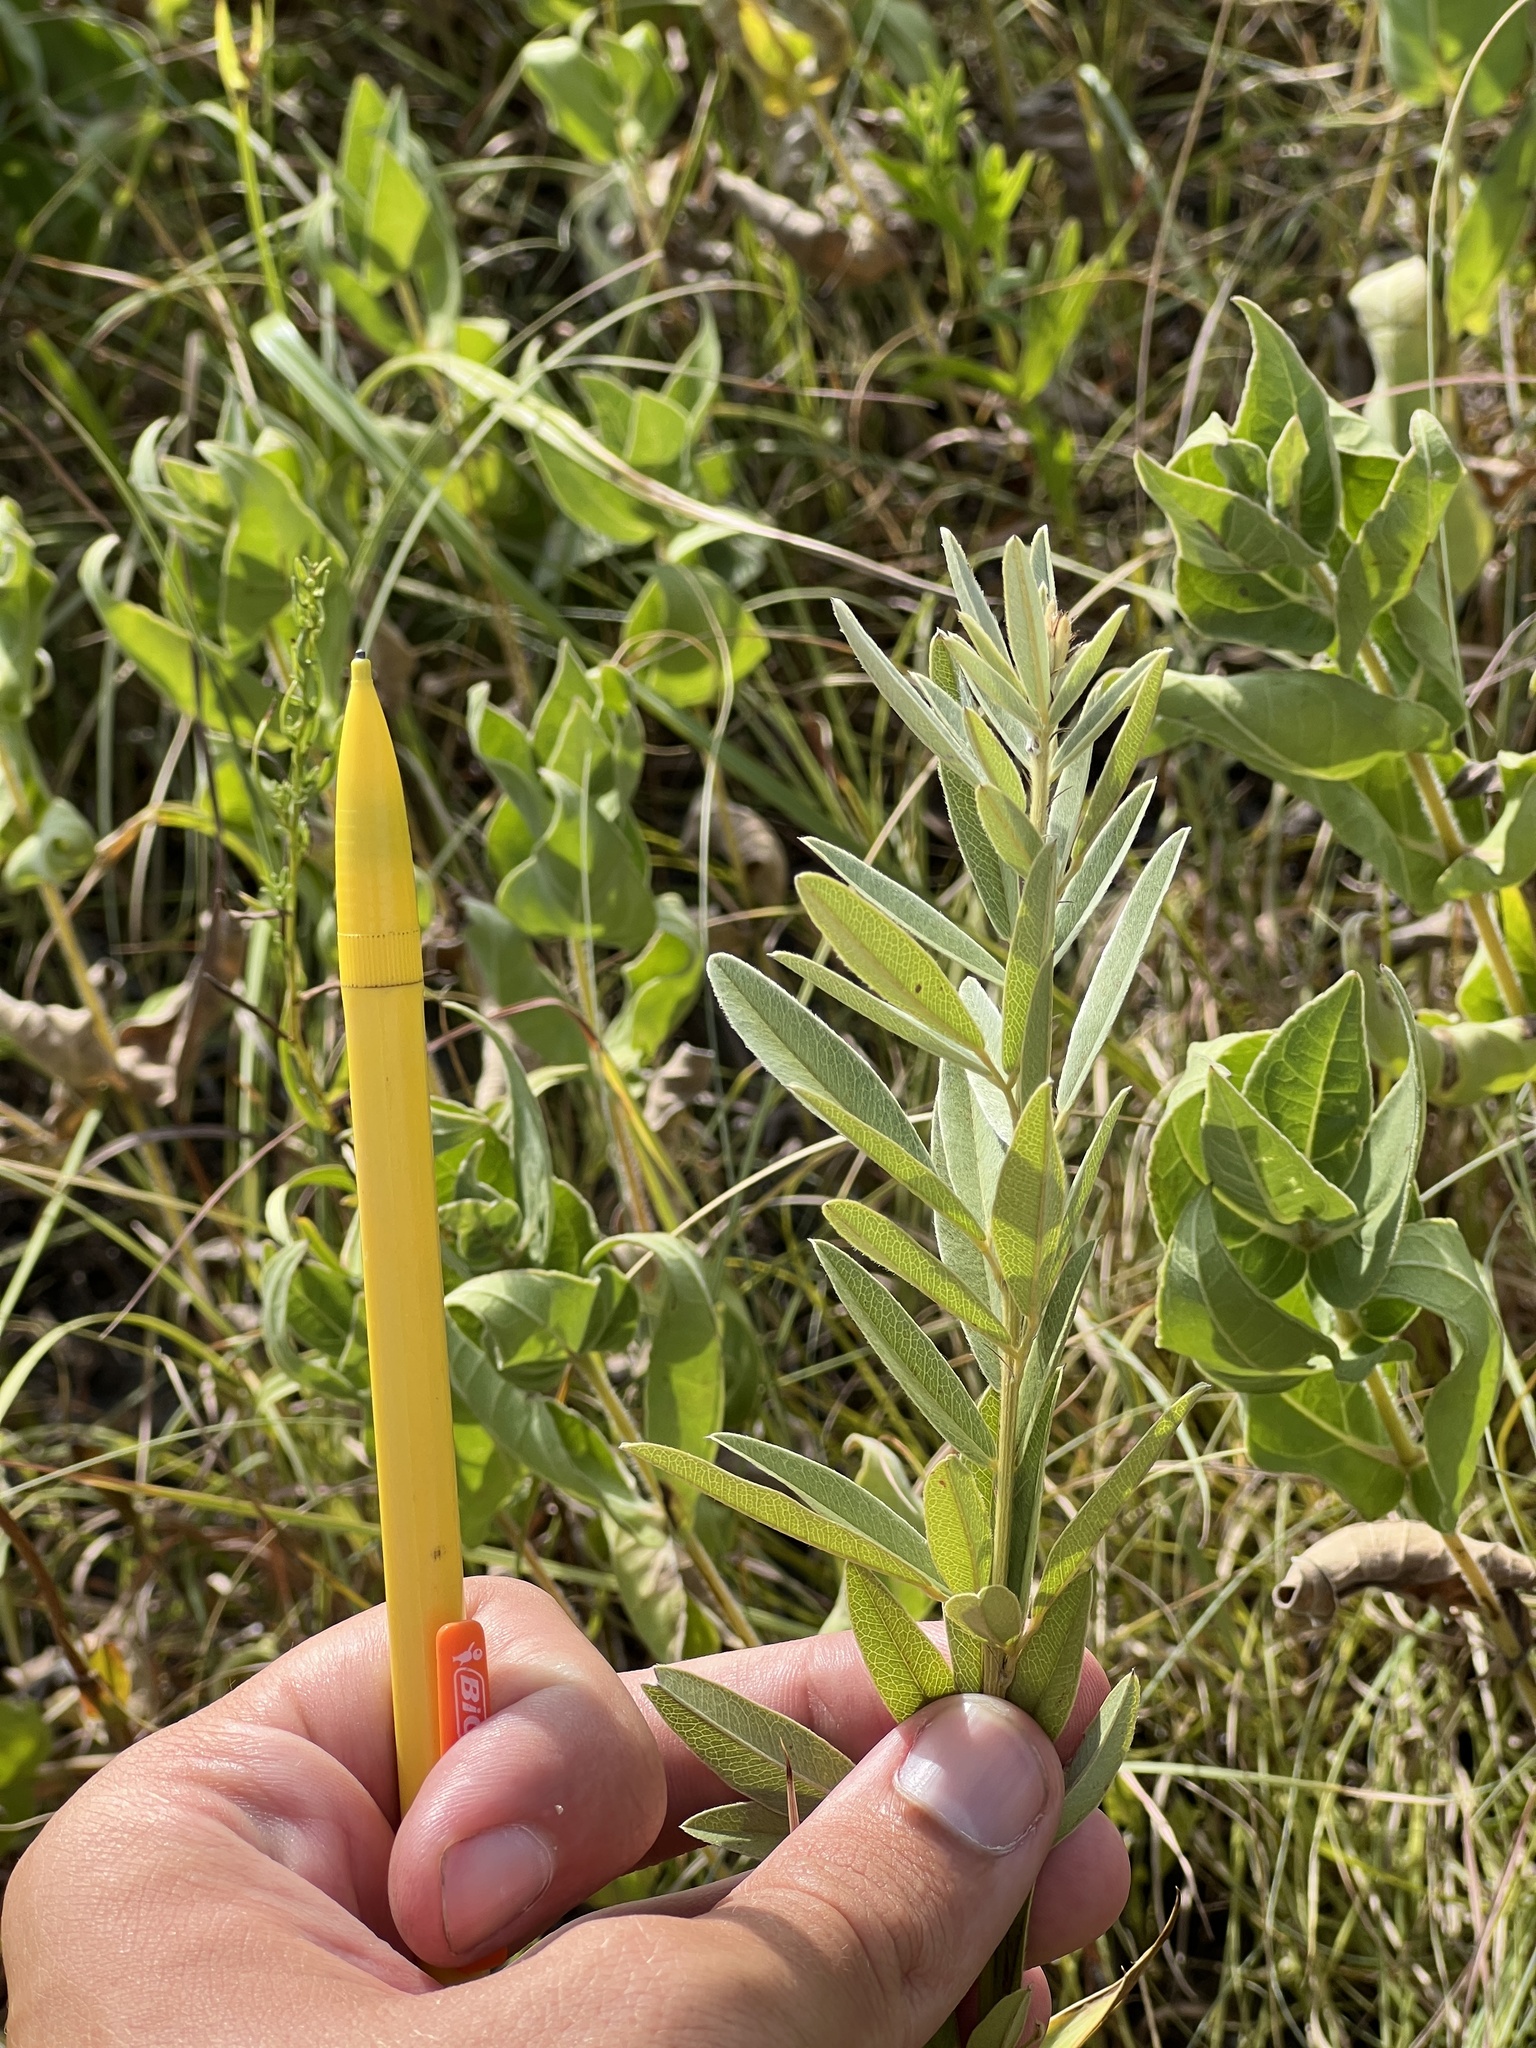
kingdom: Plantae
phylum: Tracheophyta
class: Magnoliopsida
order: Fabales
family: Fabaceae
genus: Lespedeza
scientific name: Lespedeza capitata
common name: Dusty clover
